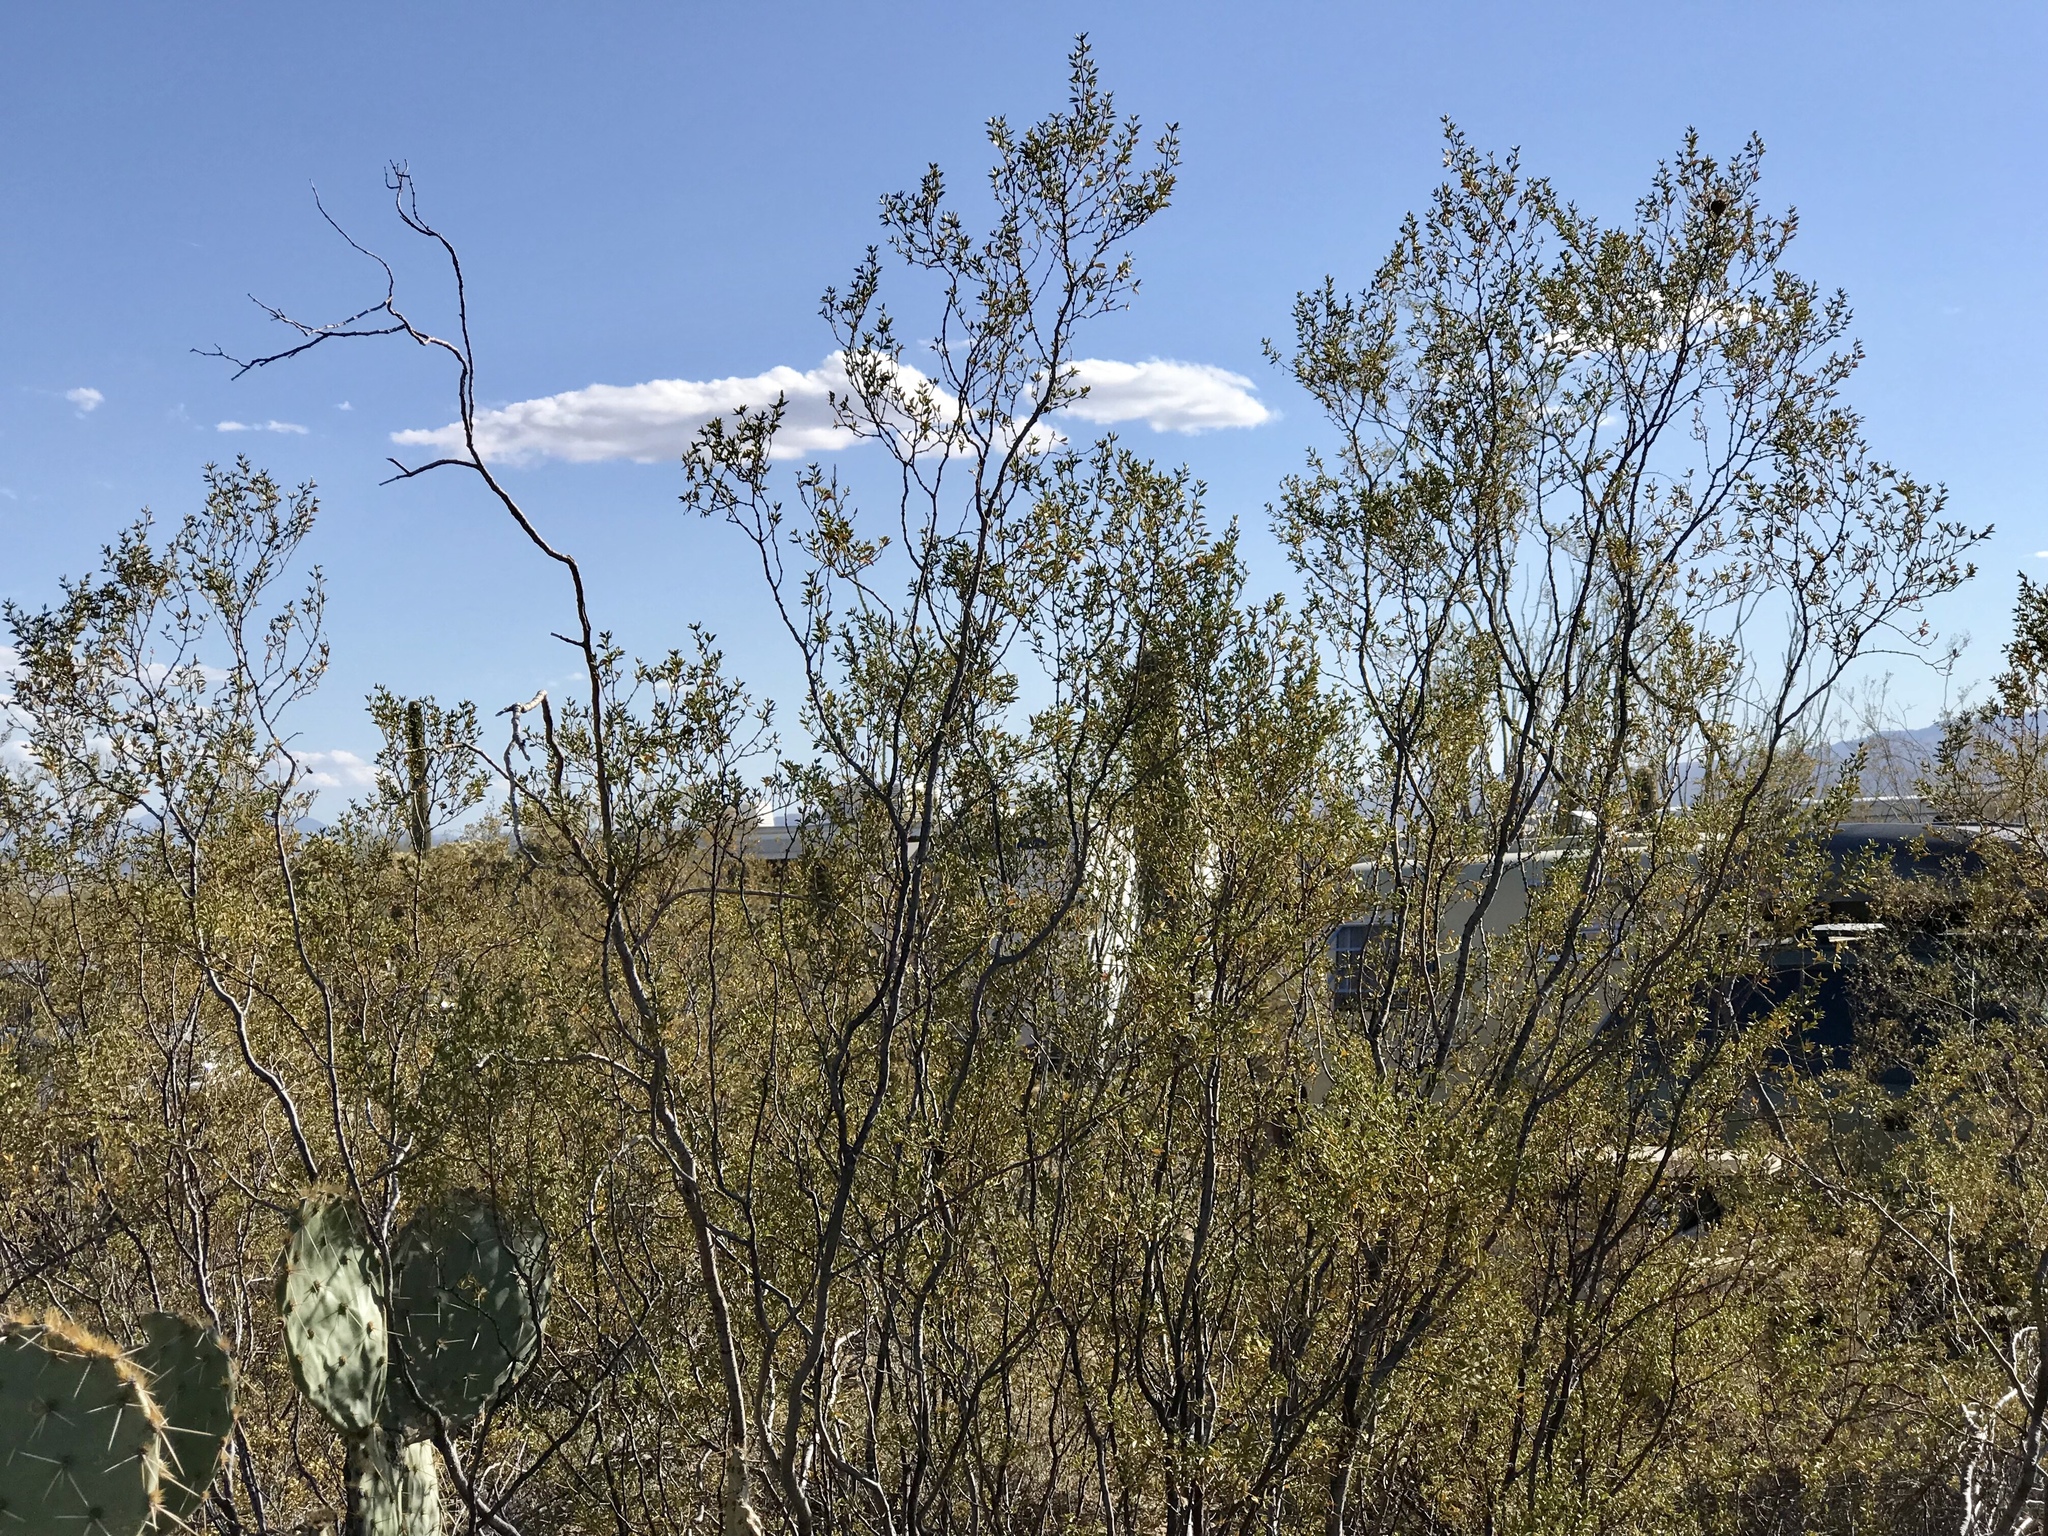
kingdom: Plantae
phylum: Tracheophyta
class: Magnoliopsida
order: Zygophyllales
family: Zygophyllaceae
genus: Larrea
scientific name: Larrea tridentata
